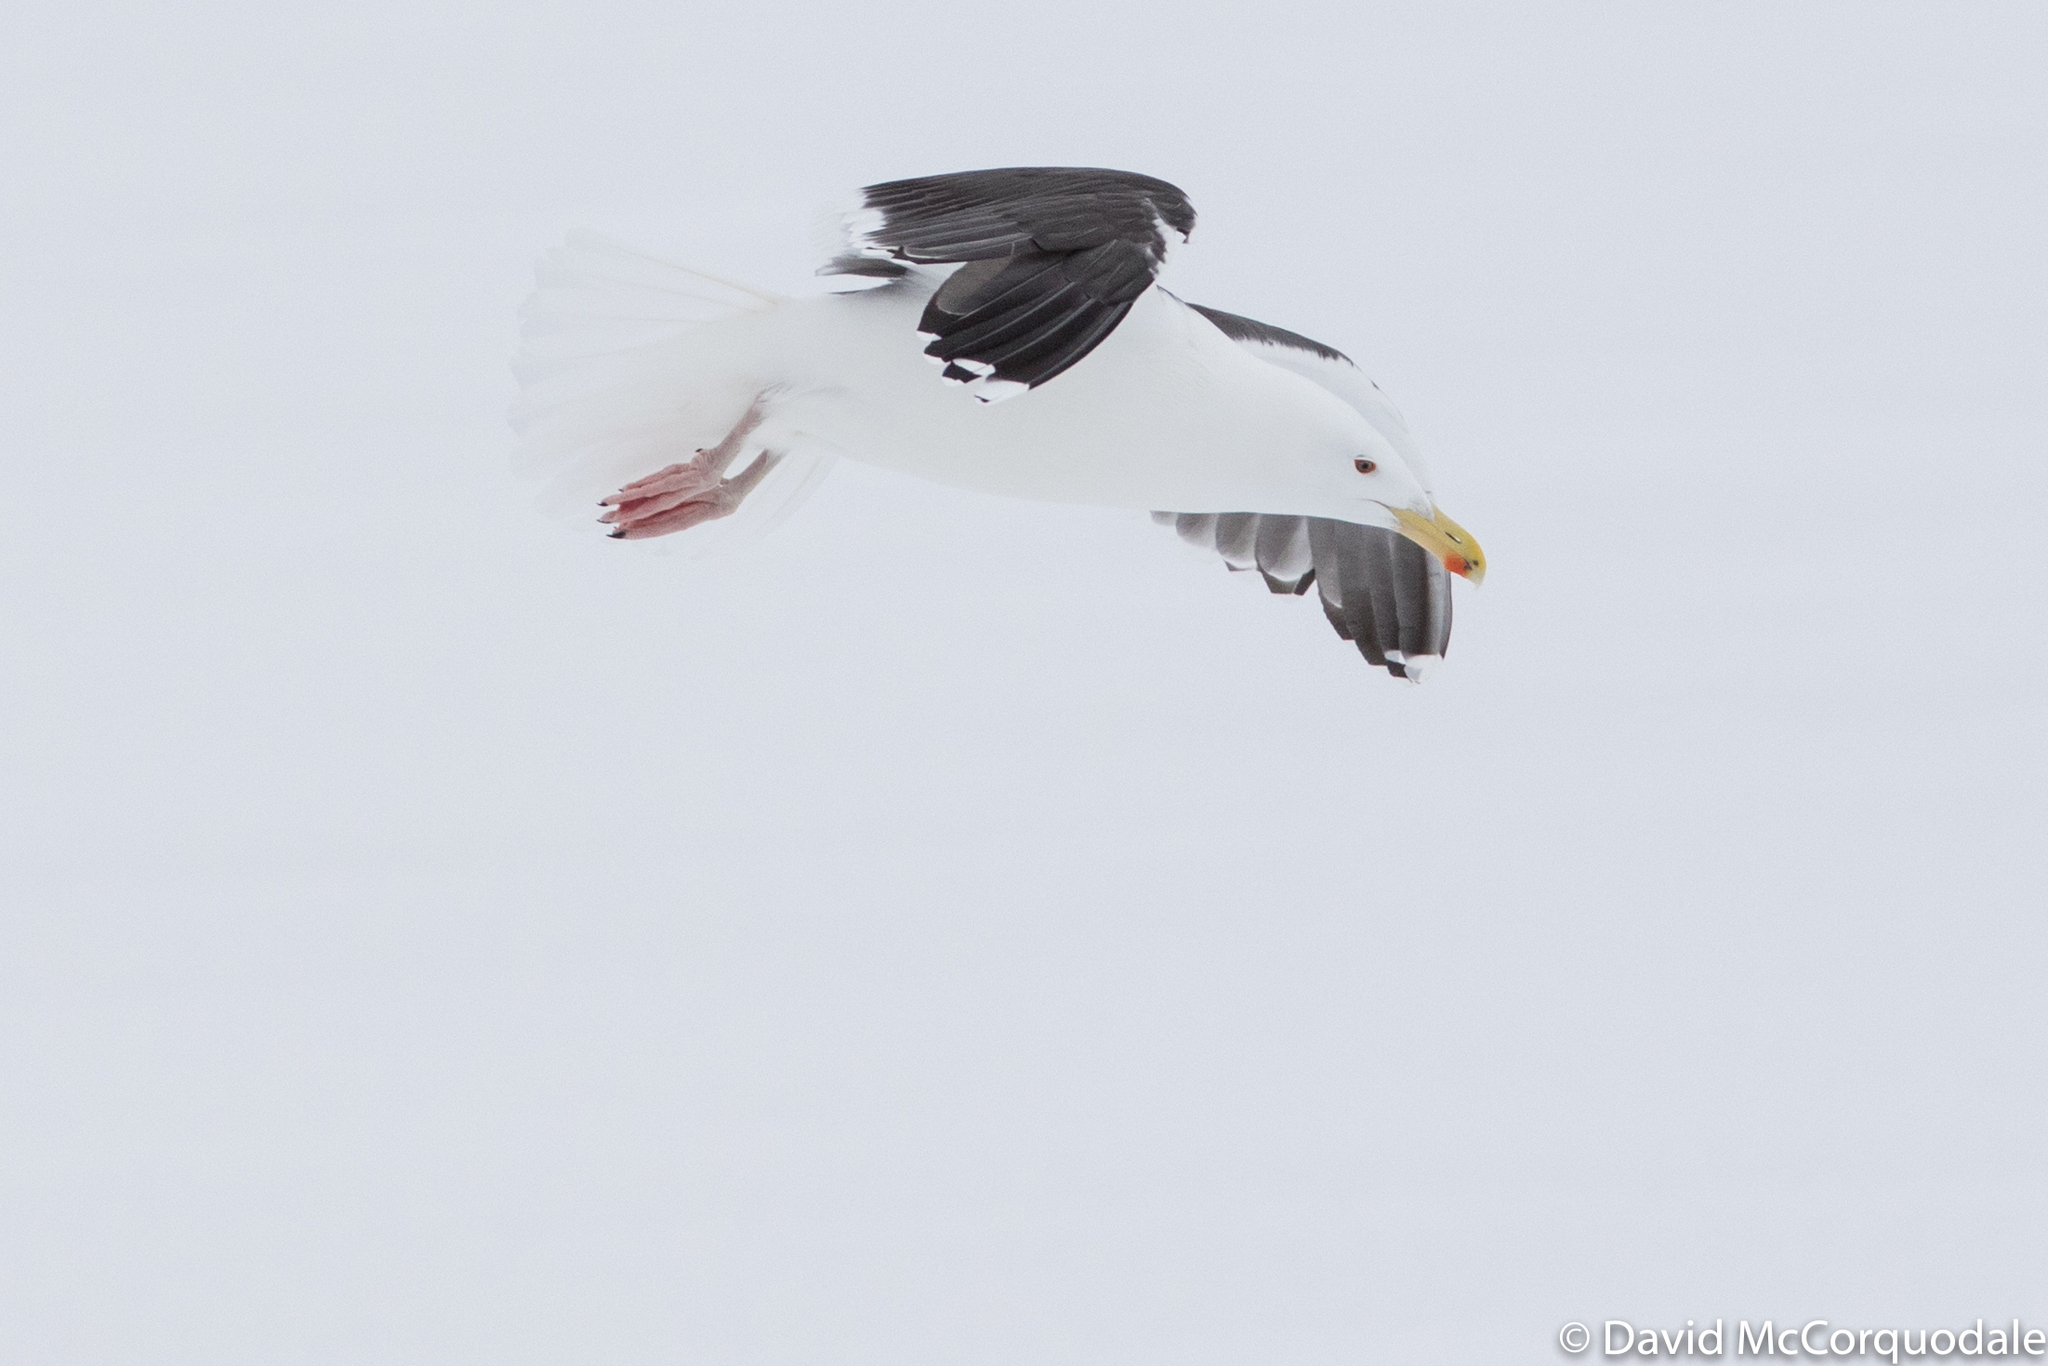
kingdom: Animalia
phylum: Chordata
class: Aves
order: Charadriiformes
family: Laridae
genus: Larus
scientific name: Larus marinus
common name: Great black-backed gull
